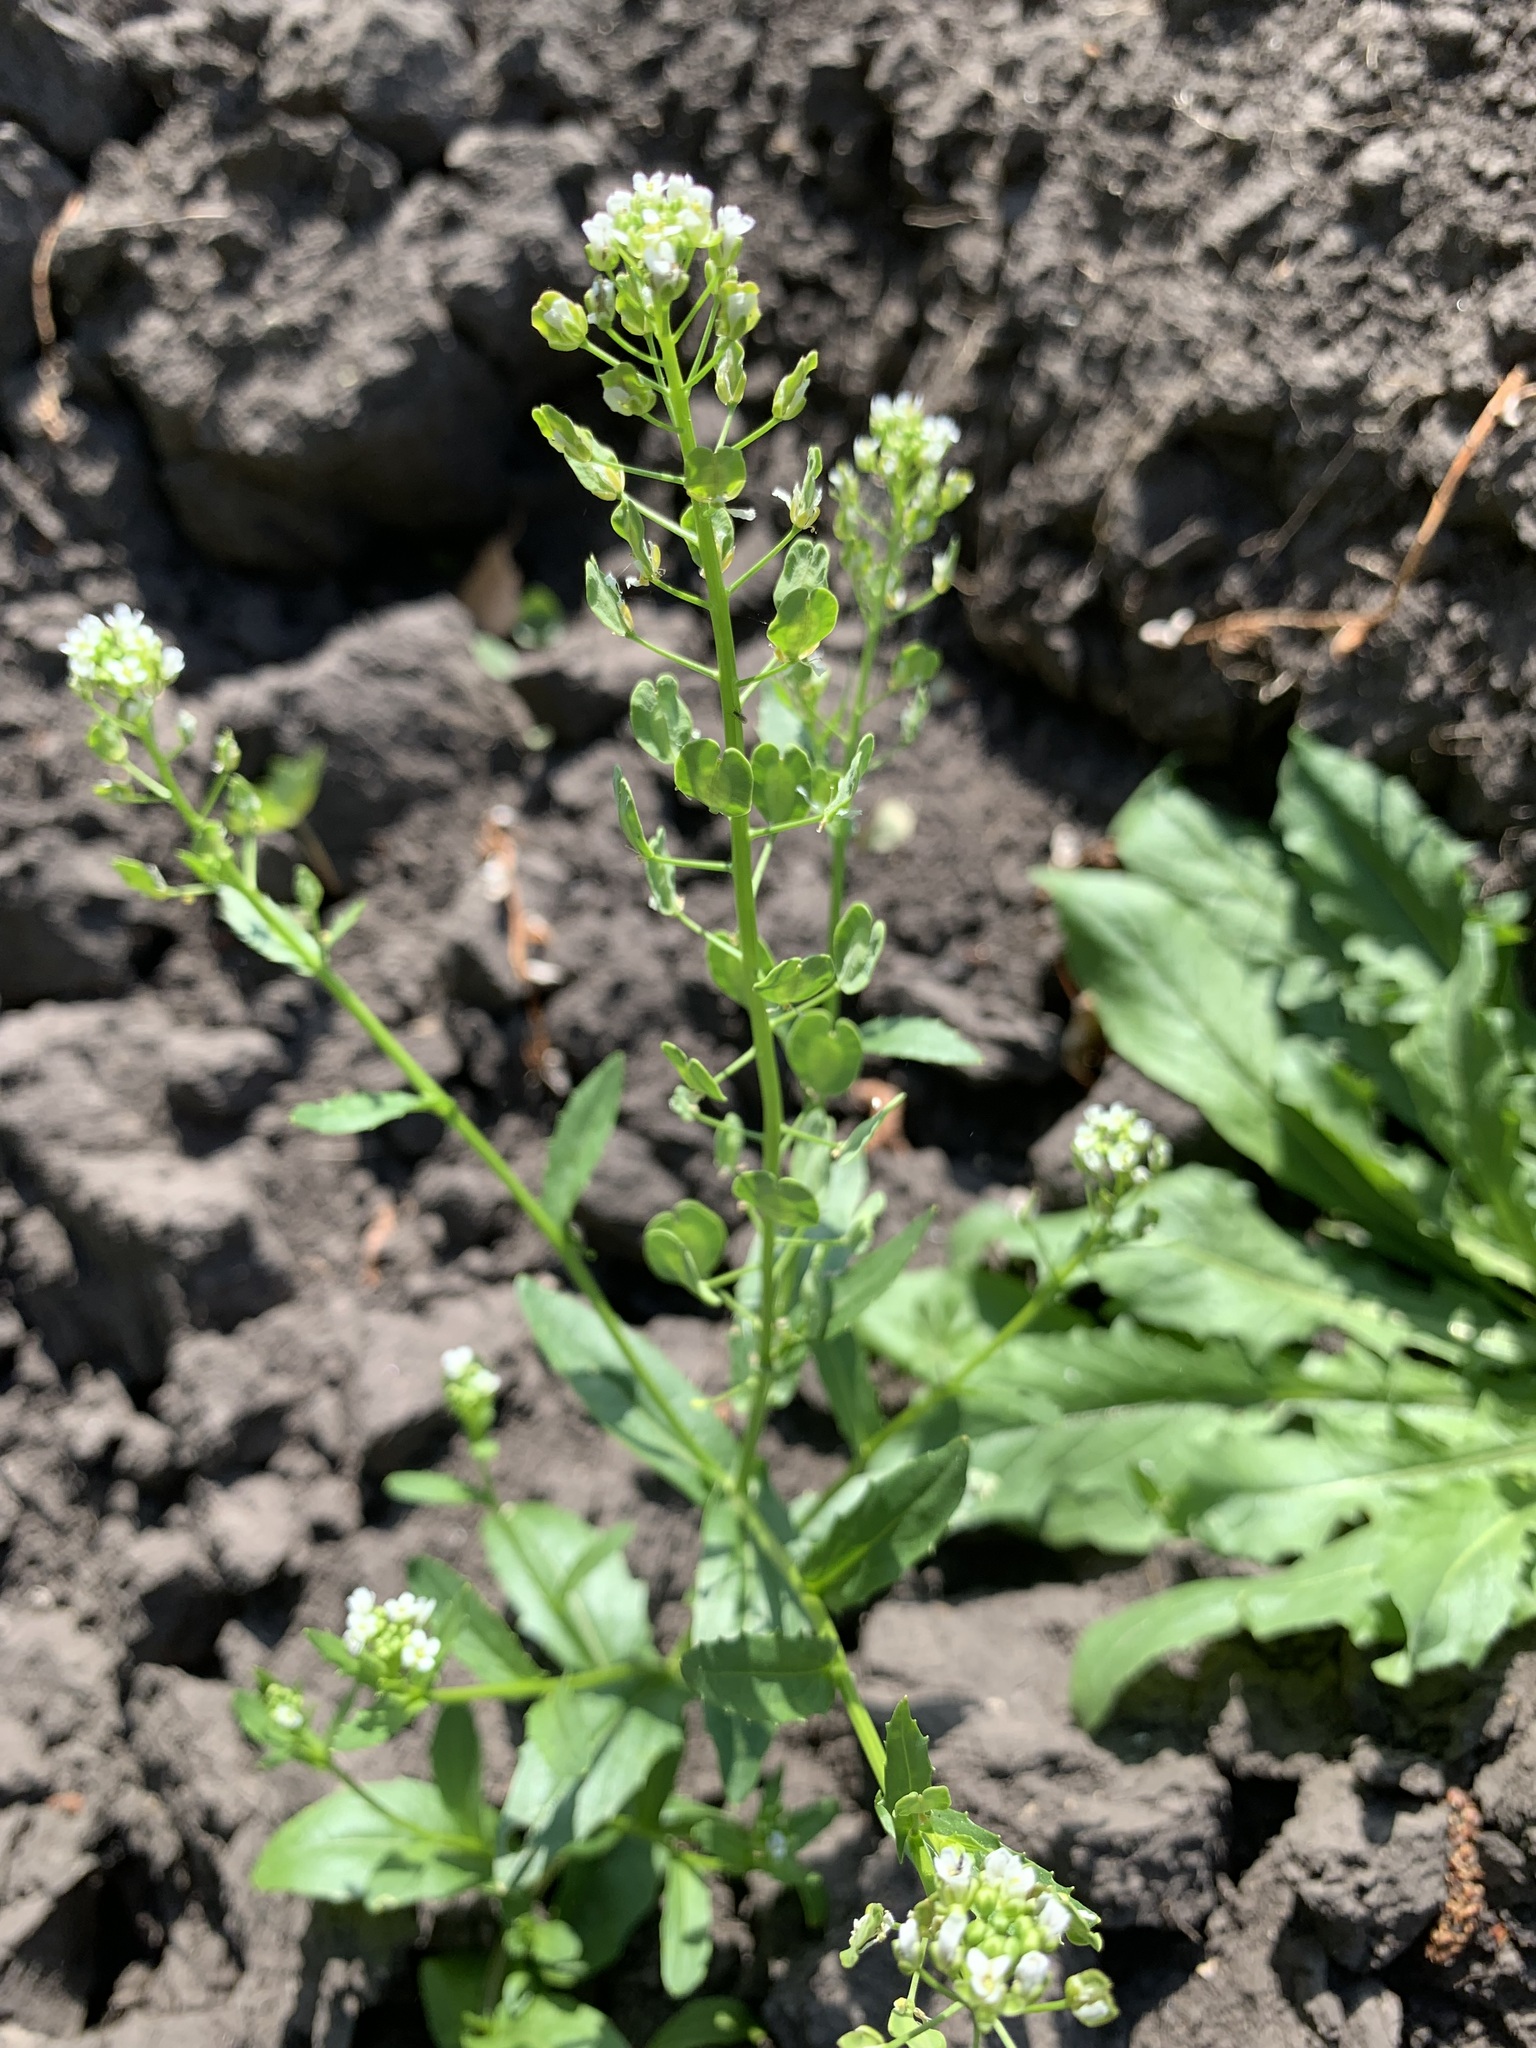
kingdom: Plantae
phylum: Tracheophyta
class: Magnoliopsida
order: Brassicales
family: Brassicaceae
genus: Thlaspi
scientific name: Thlaspi arvense
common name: Field pennycress
